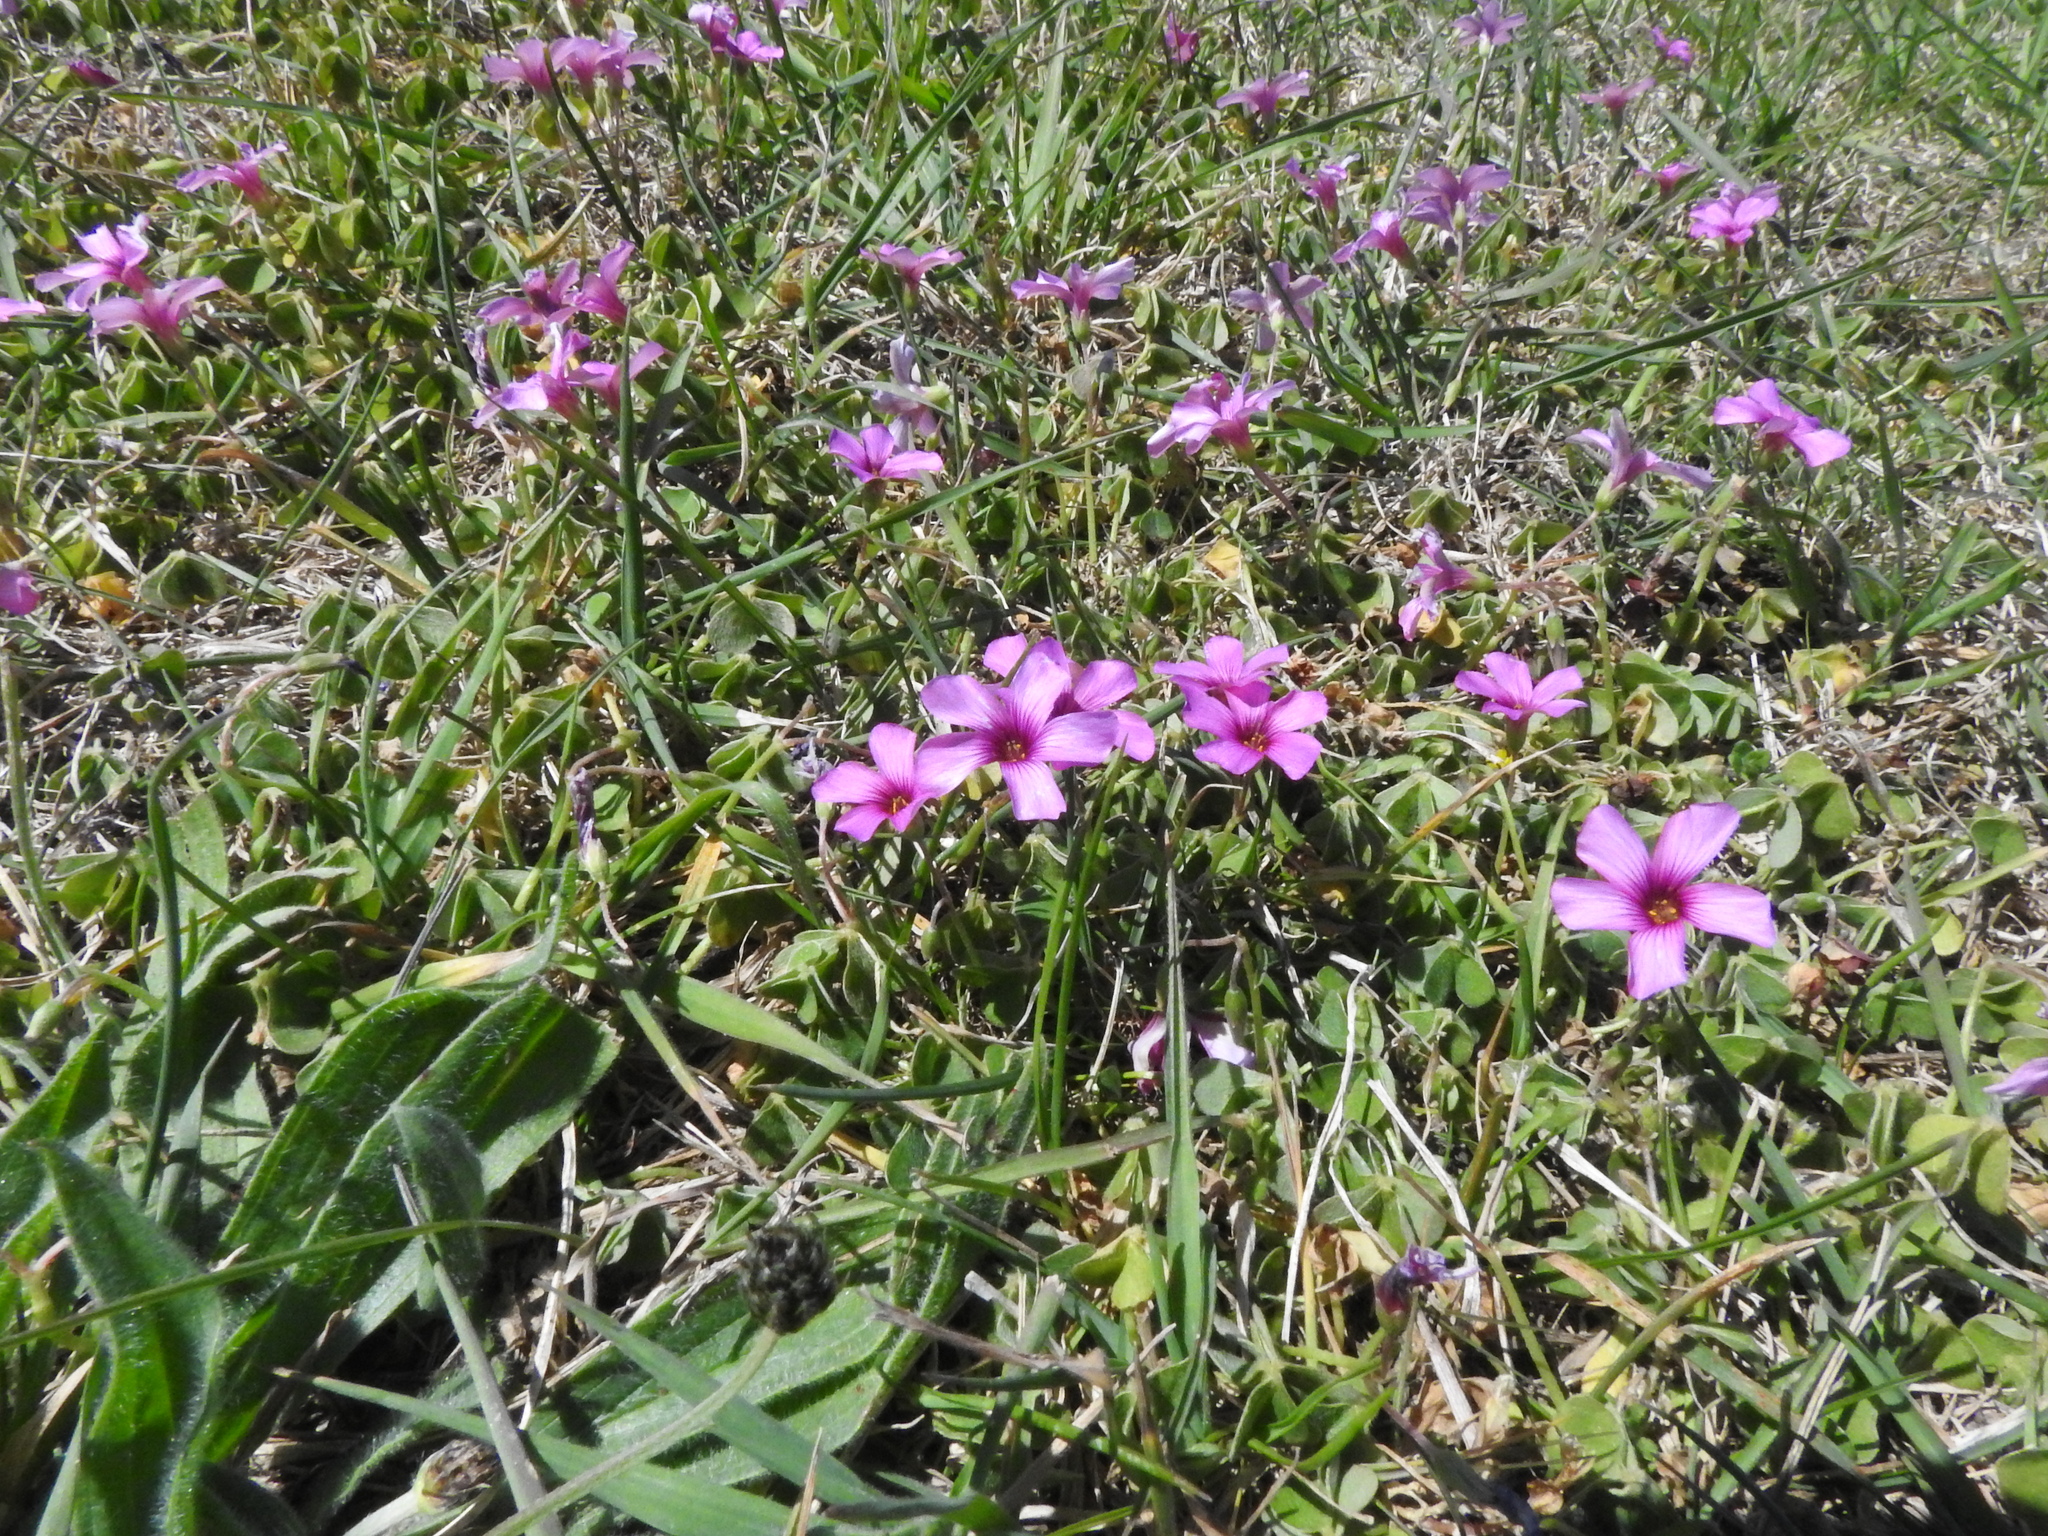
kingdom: Plantae
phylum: Tracheophyta
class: Magnoliopsida
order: Oxalidales
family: Oxalidaceae
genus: Oxalis
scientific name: Oxalis articulata
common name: Pink-sorrel
